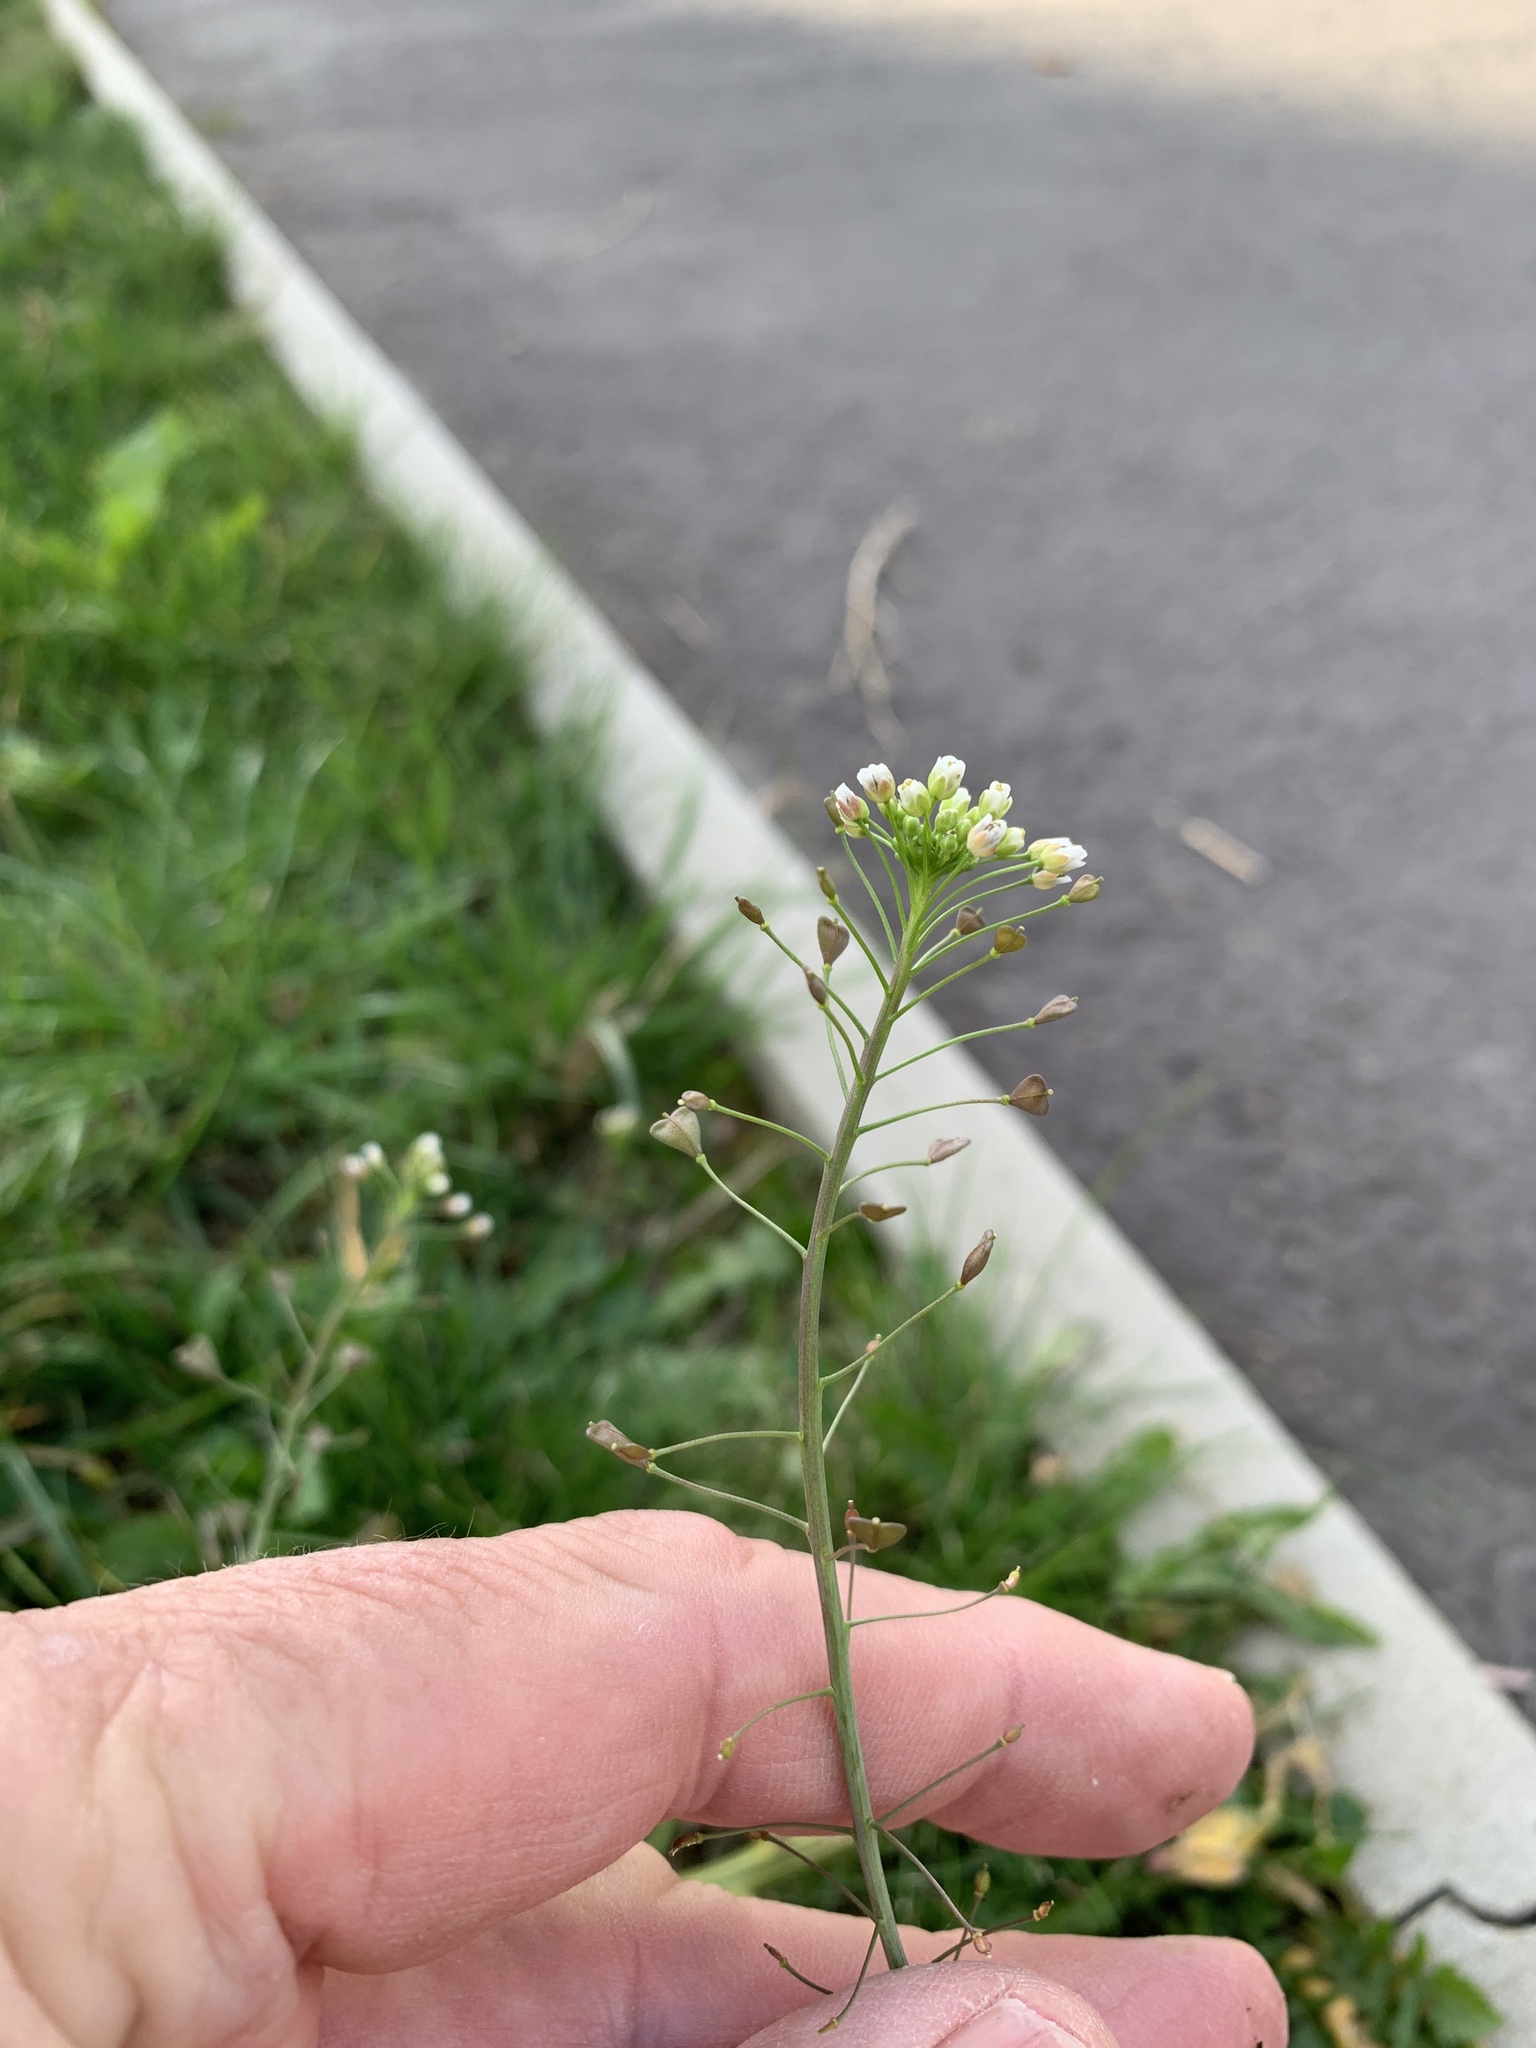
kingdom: Plantae
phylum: Tracheophyta
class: Magnoliopsida
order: Brassicales
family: Brassicaceae
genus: Capsella
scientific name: Capsella bursa-pastoris
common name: Shepherd's purse
